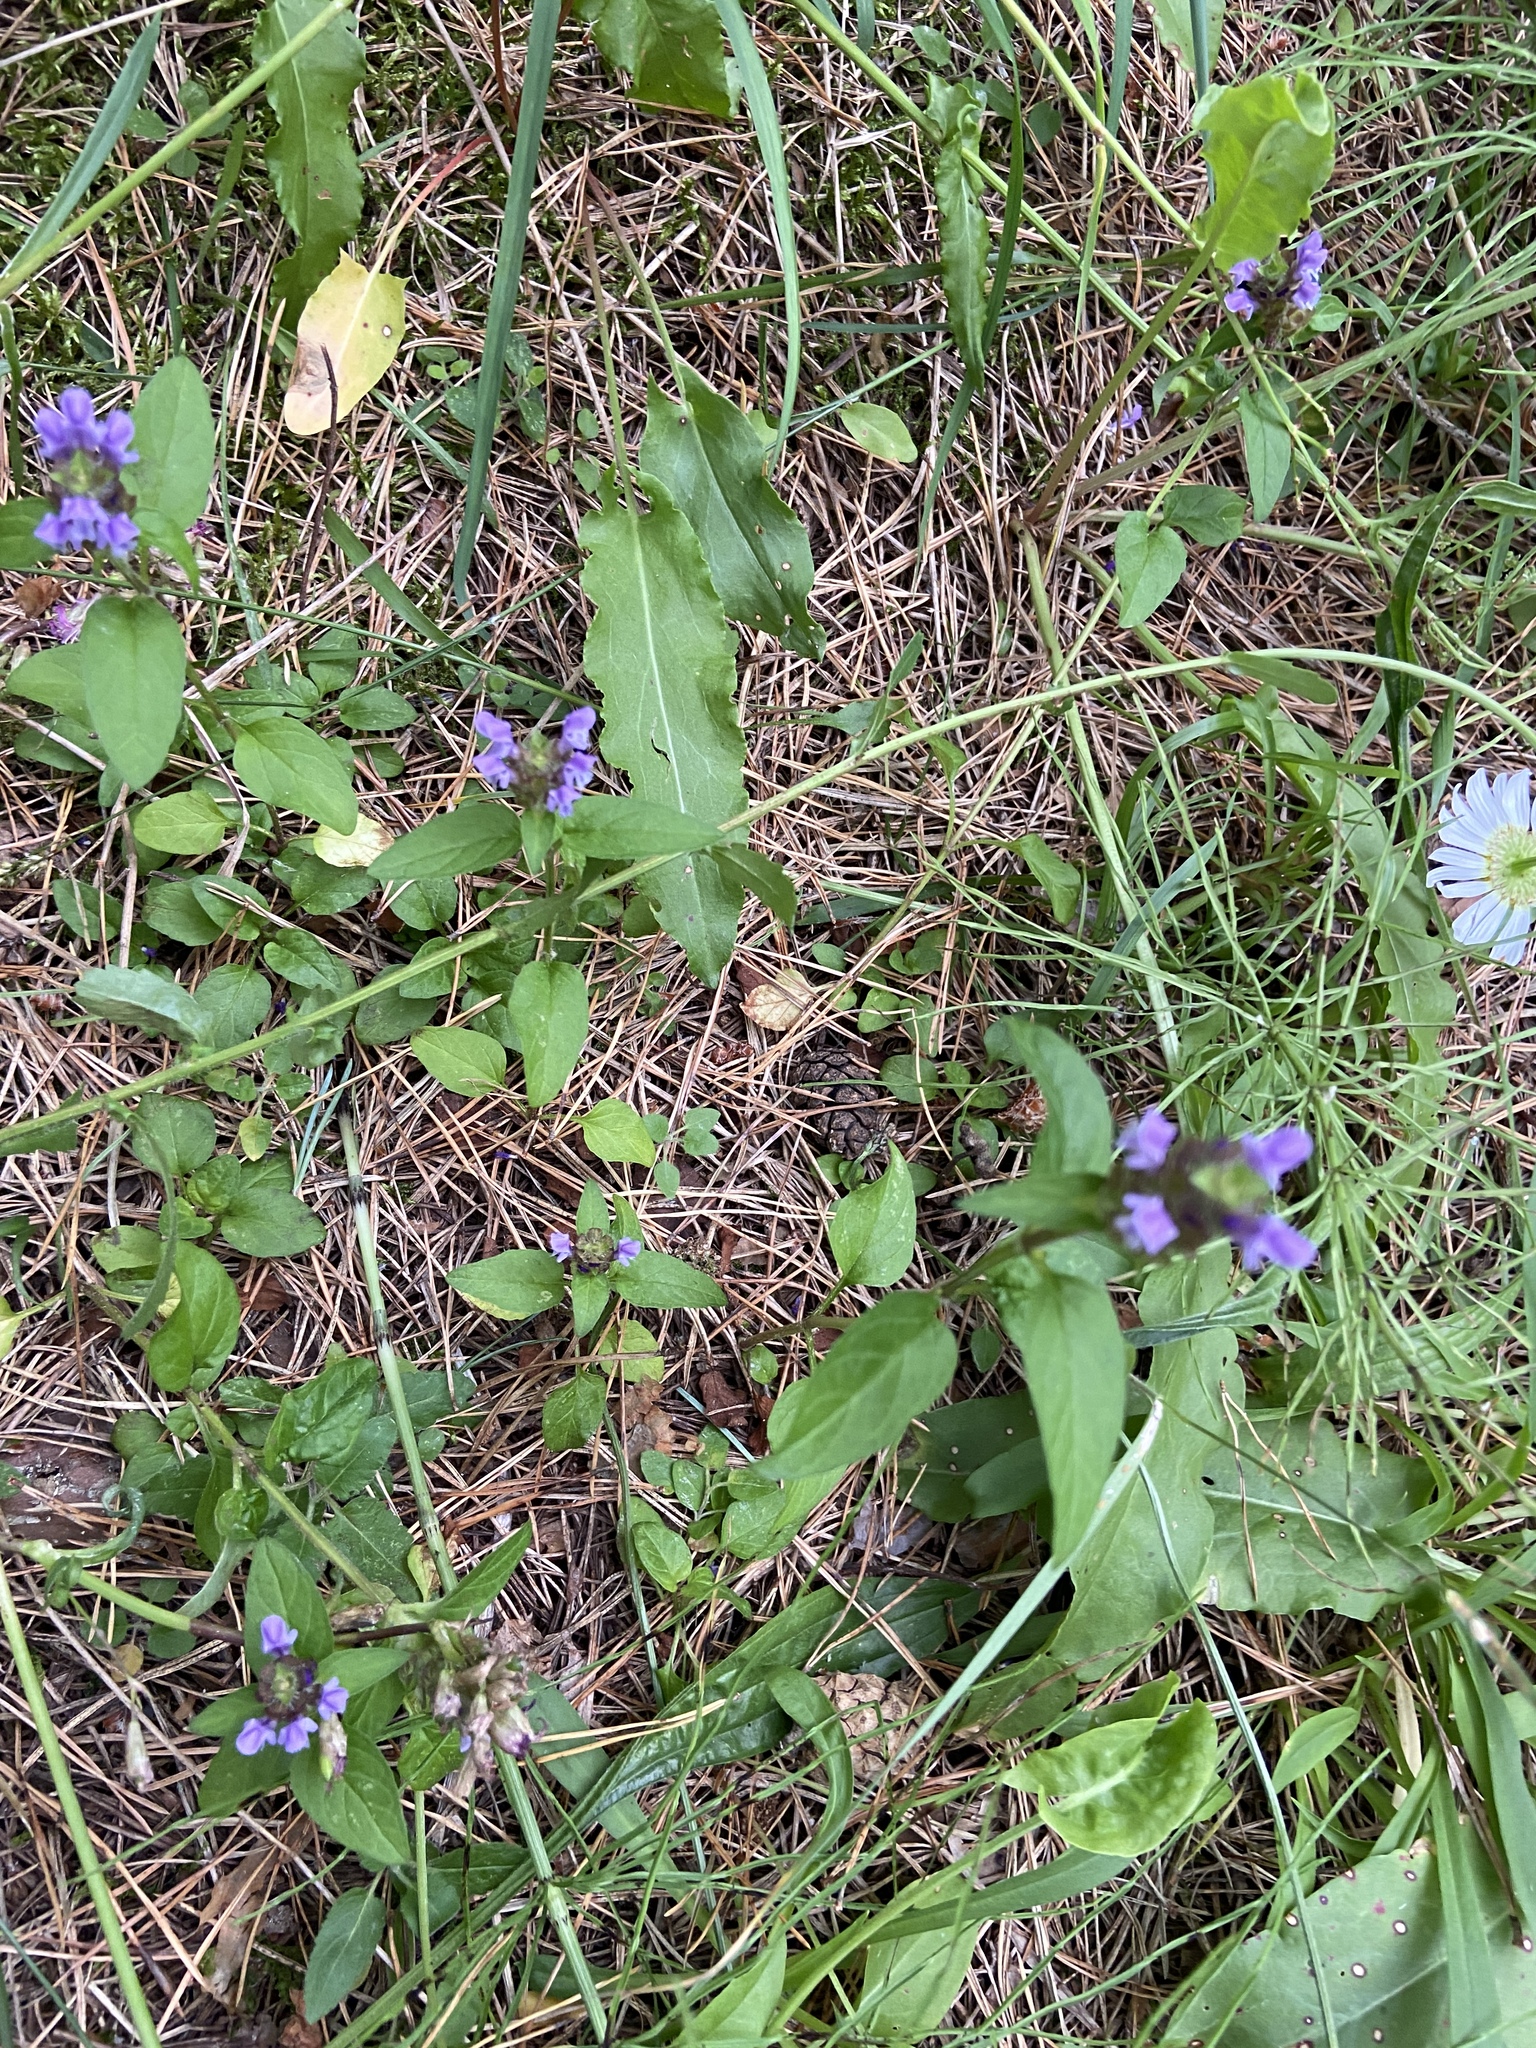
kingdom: Plantae
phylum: Tracheophyta
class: Magnoliopsida
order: Lamiales
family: Lamiaceae
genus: Prunella
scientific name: Prunella vulgaris
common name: Heal-all
